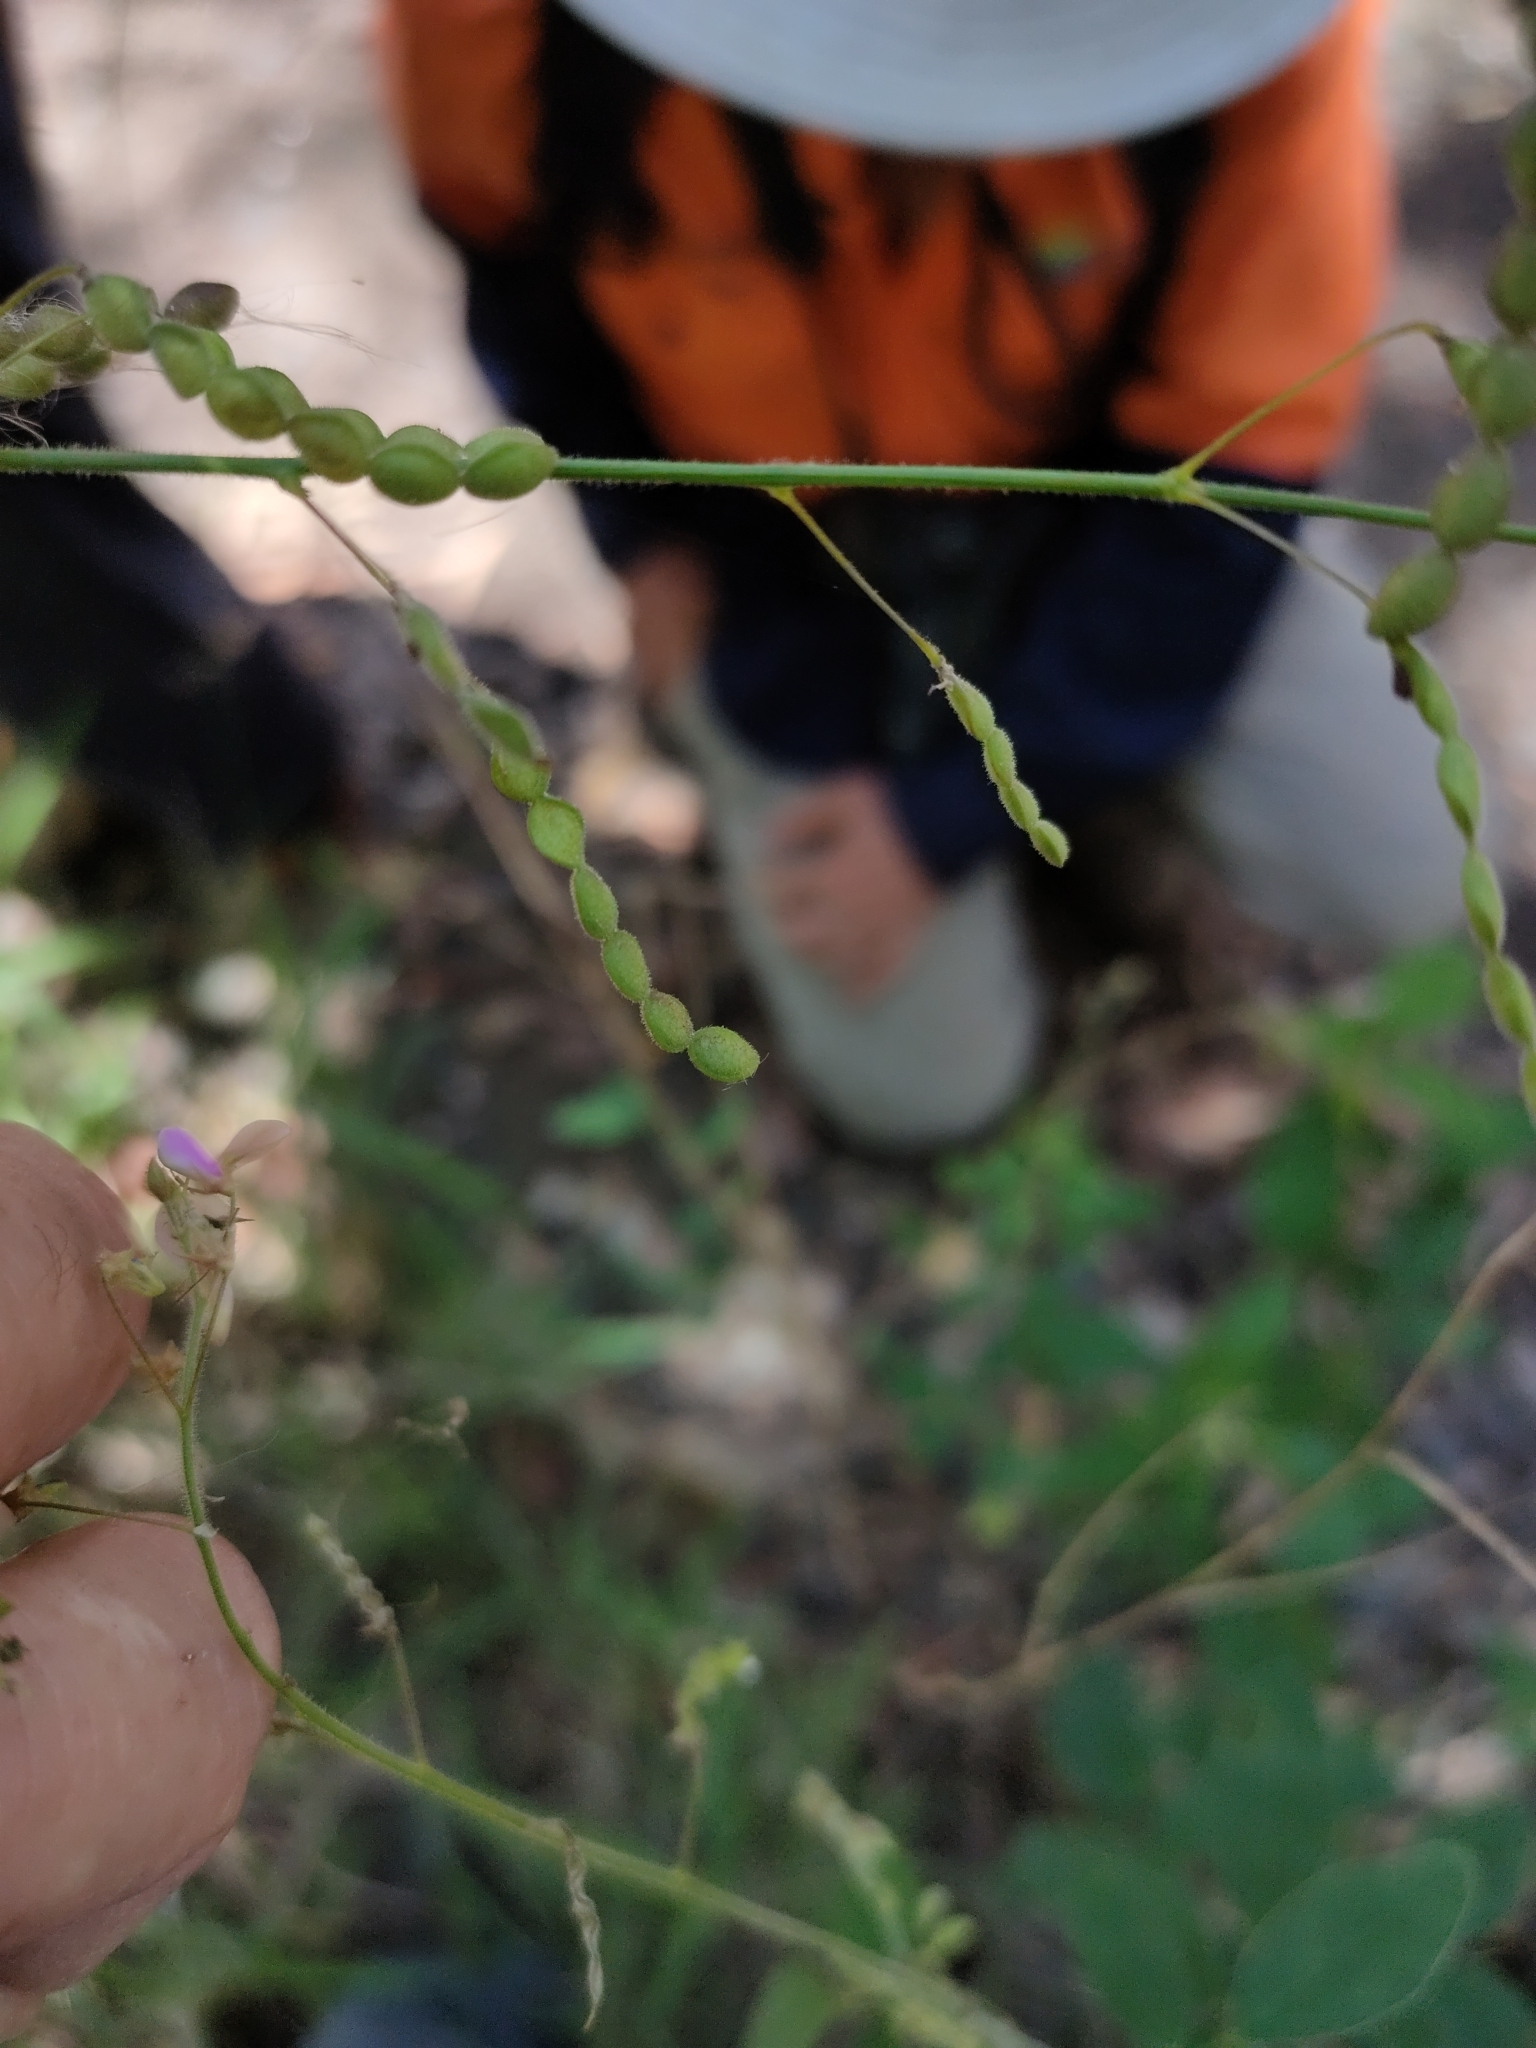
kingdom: Plantae
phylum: Tracheophyta
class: Magnoliopsida
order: Fabales
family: Fabaceae
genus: Desmodium
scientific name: Desmodium tortuosum
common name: Dixie ticktrefoil
